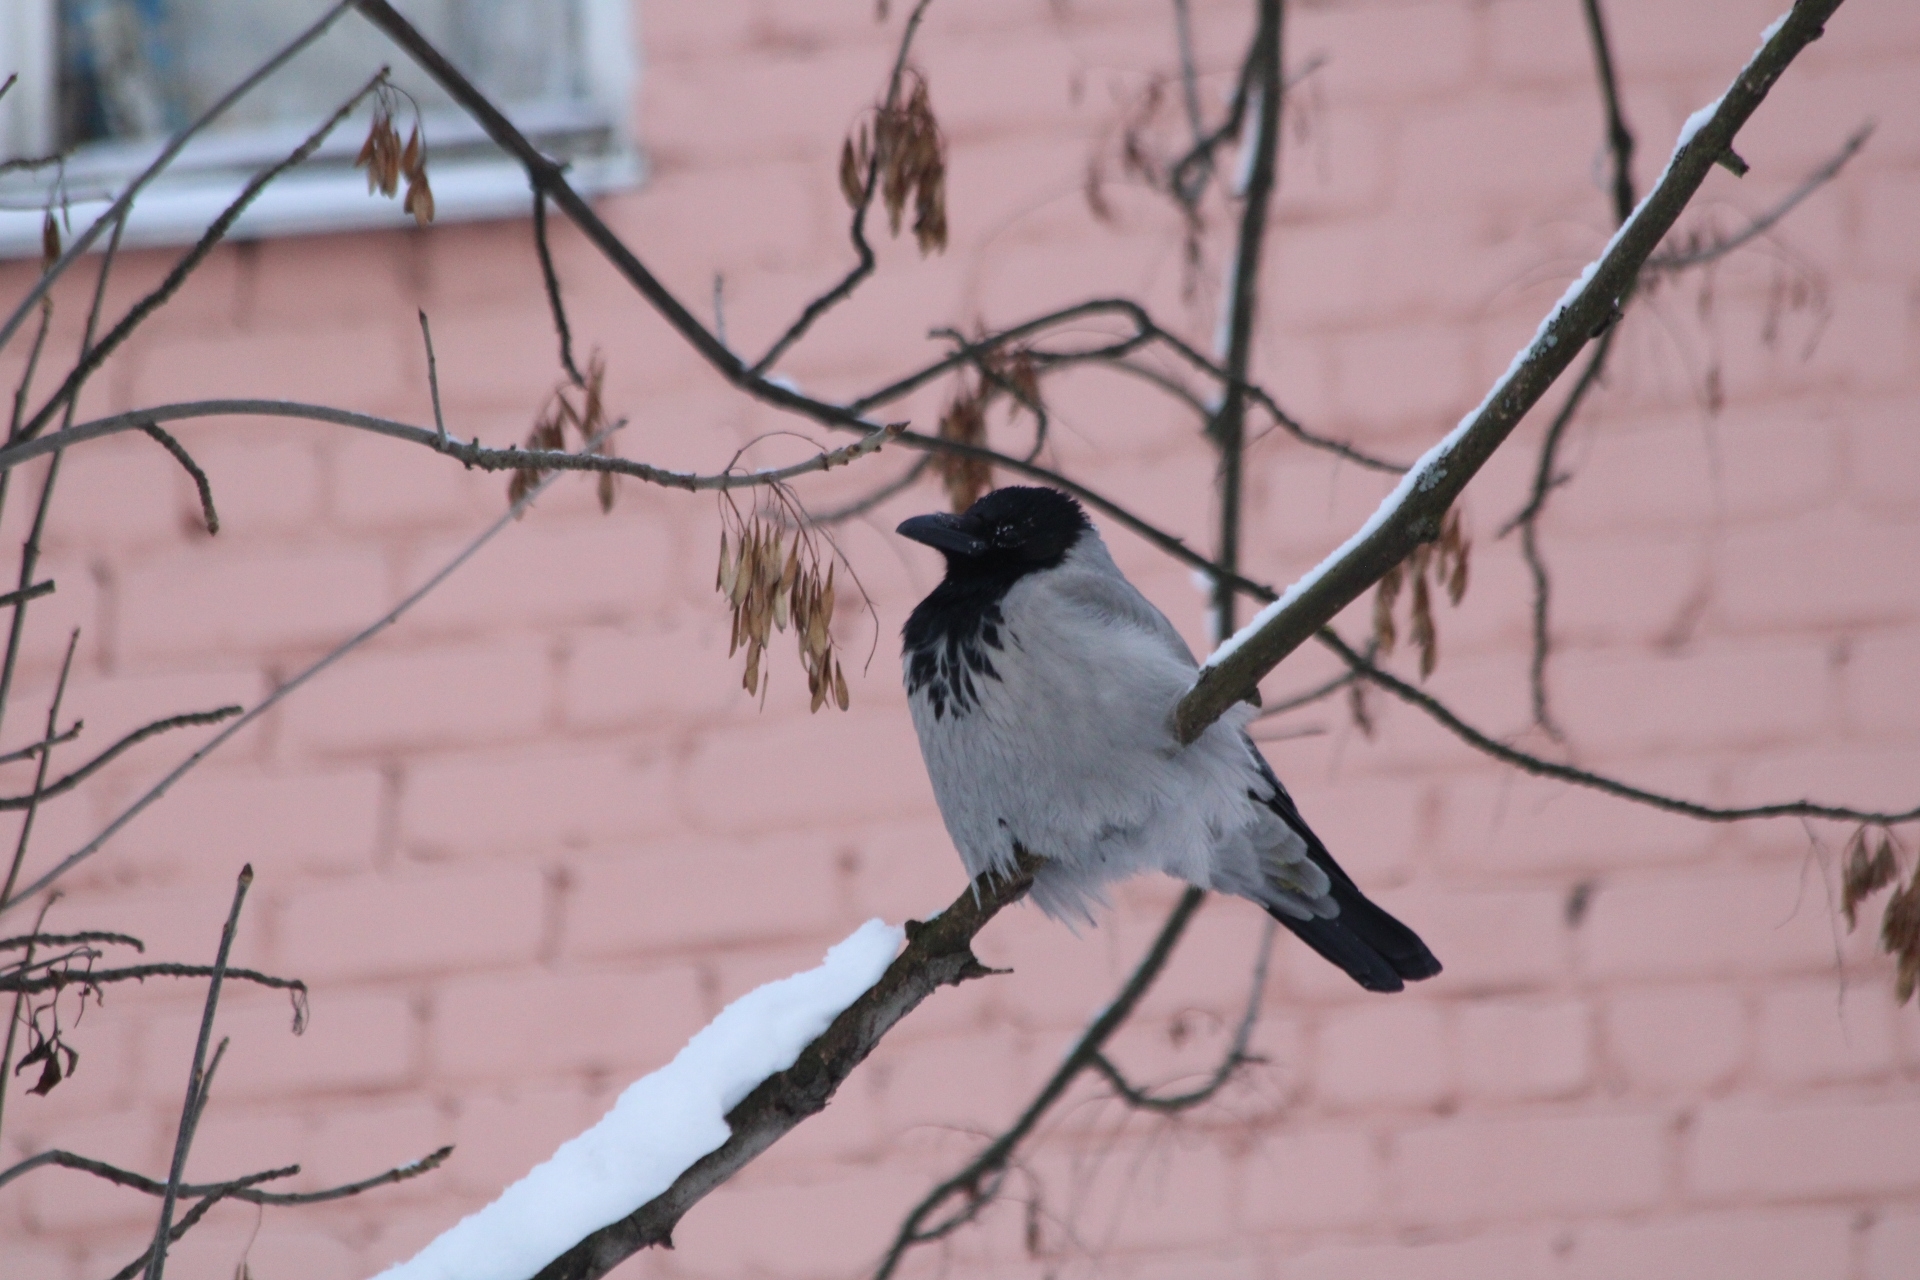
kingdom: Animalia
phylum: Chordata
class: Aves
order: Passeriformes
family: Corvidae
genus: Corvus
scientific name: Corvus cornix
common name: Hooded crow
